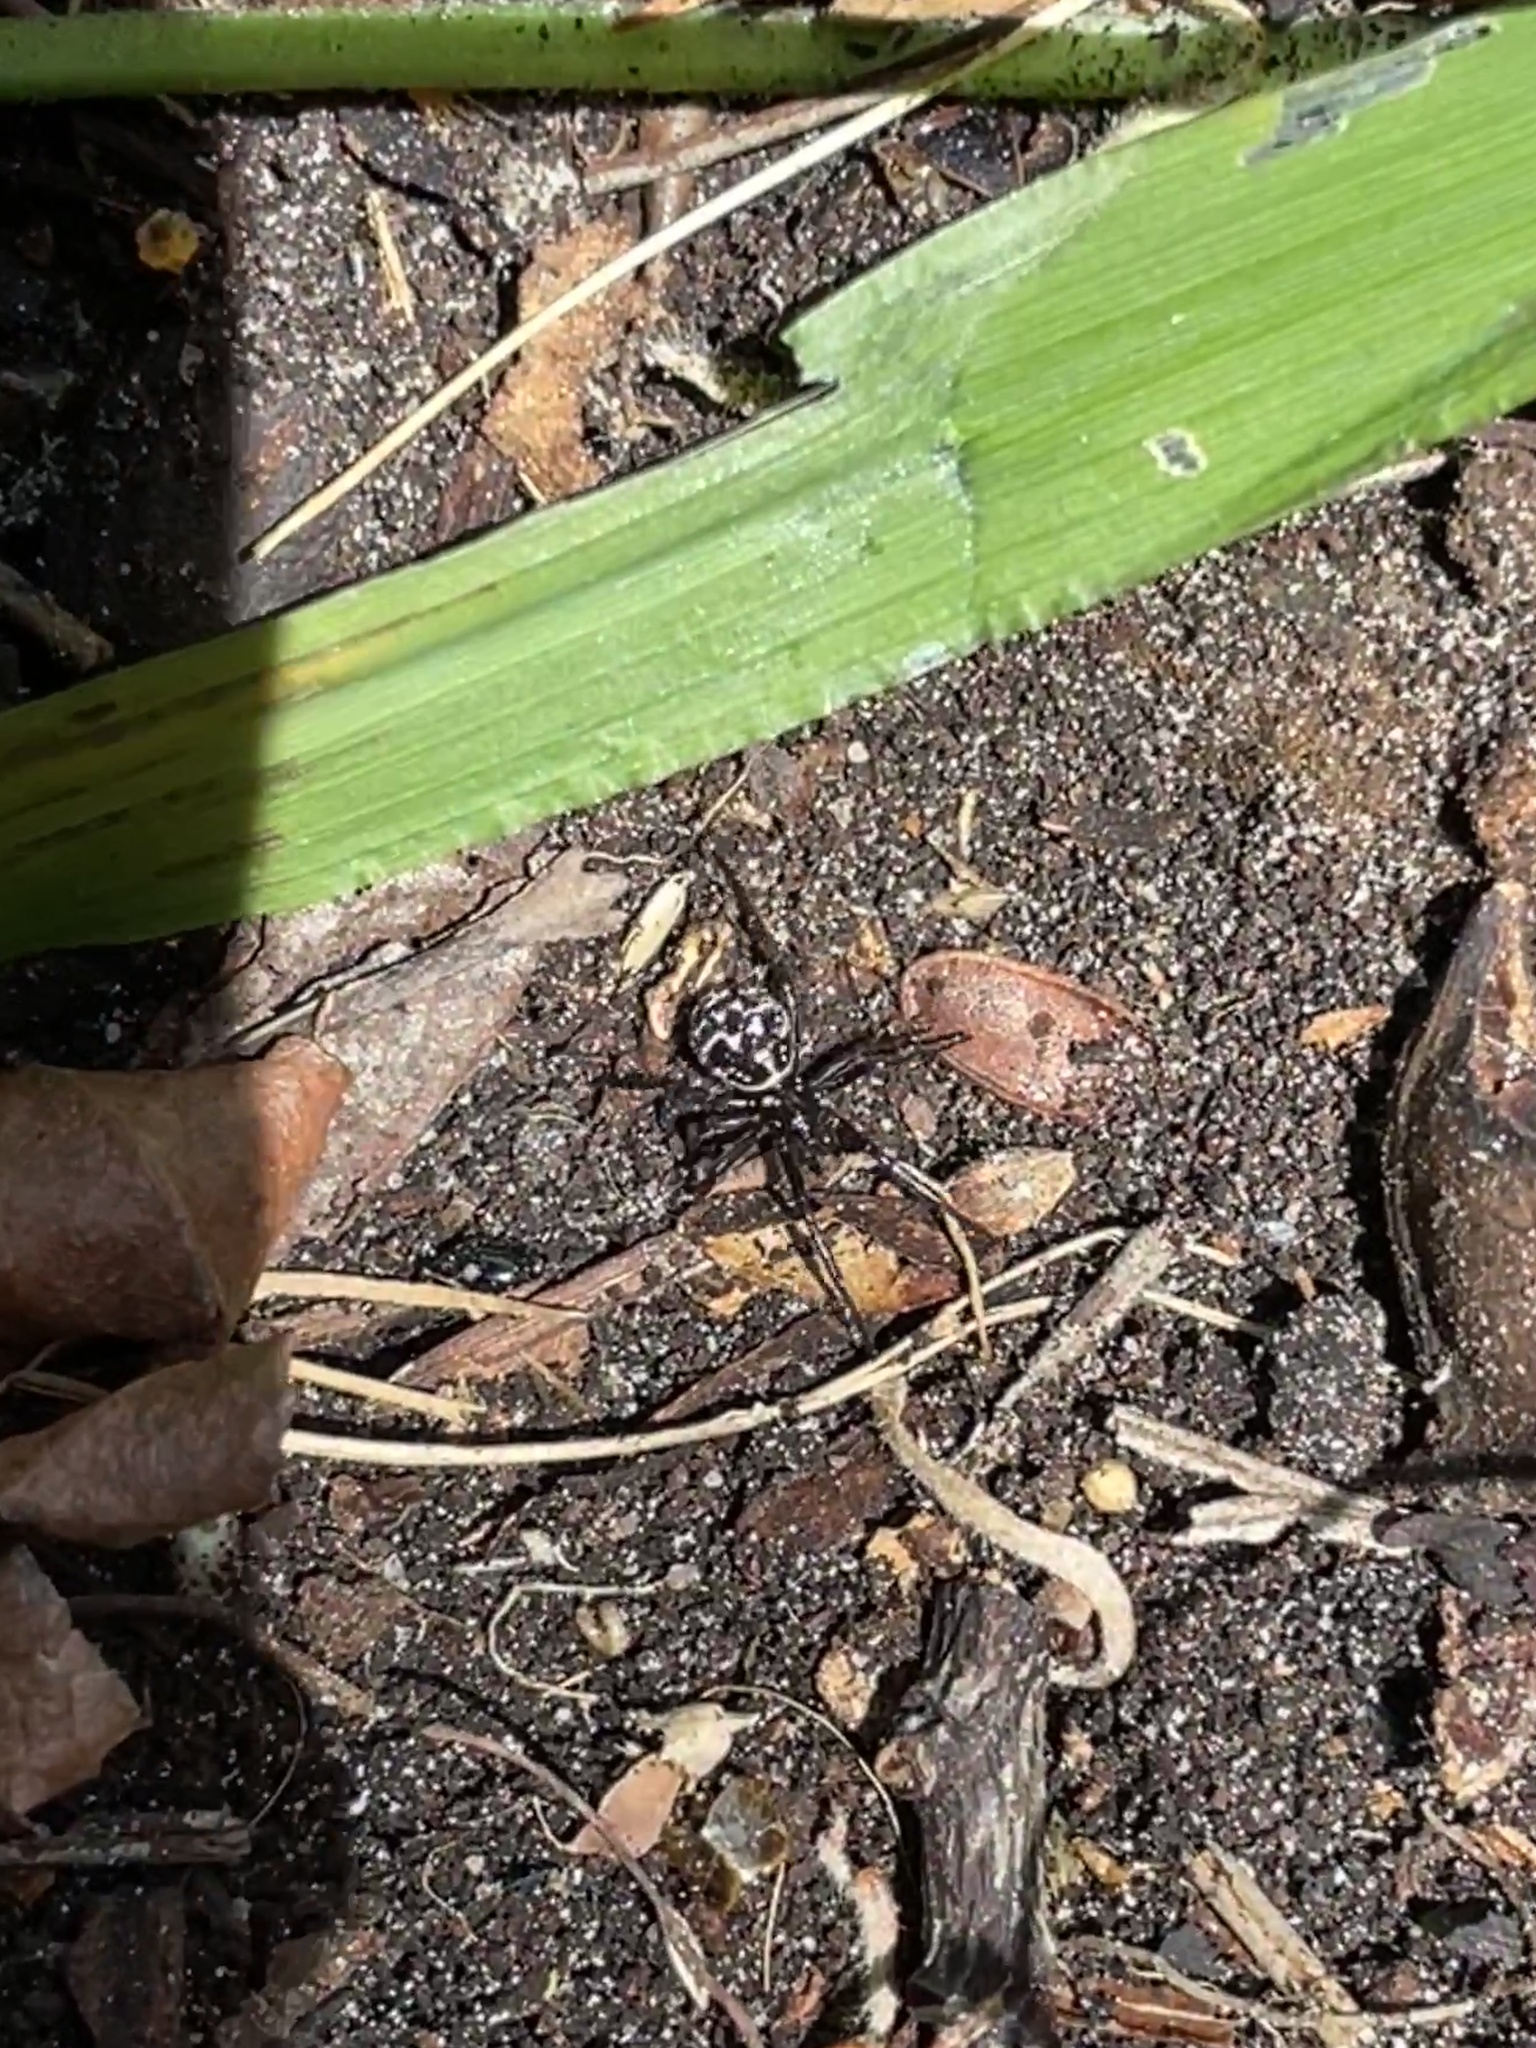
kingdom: Animalia
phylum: Arthropoda
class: Arachnida
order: Araneae
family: Theridiidae
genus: Steatoda
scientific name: Steatoda capensis
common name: Cobweb weaver
